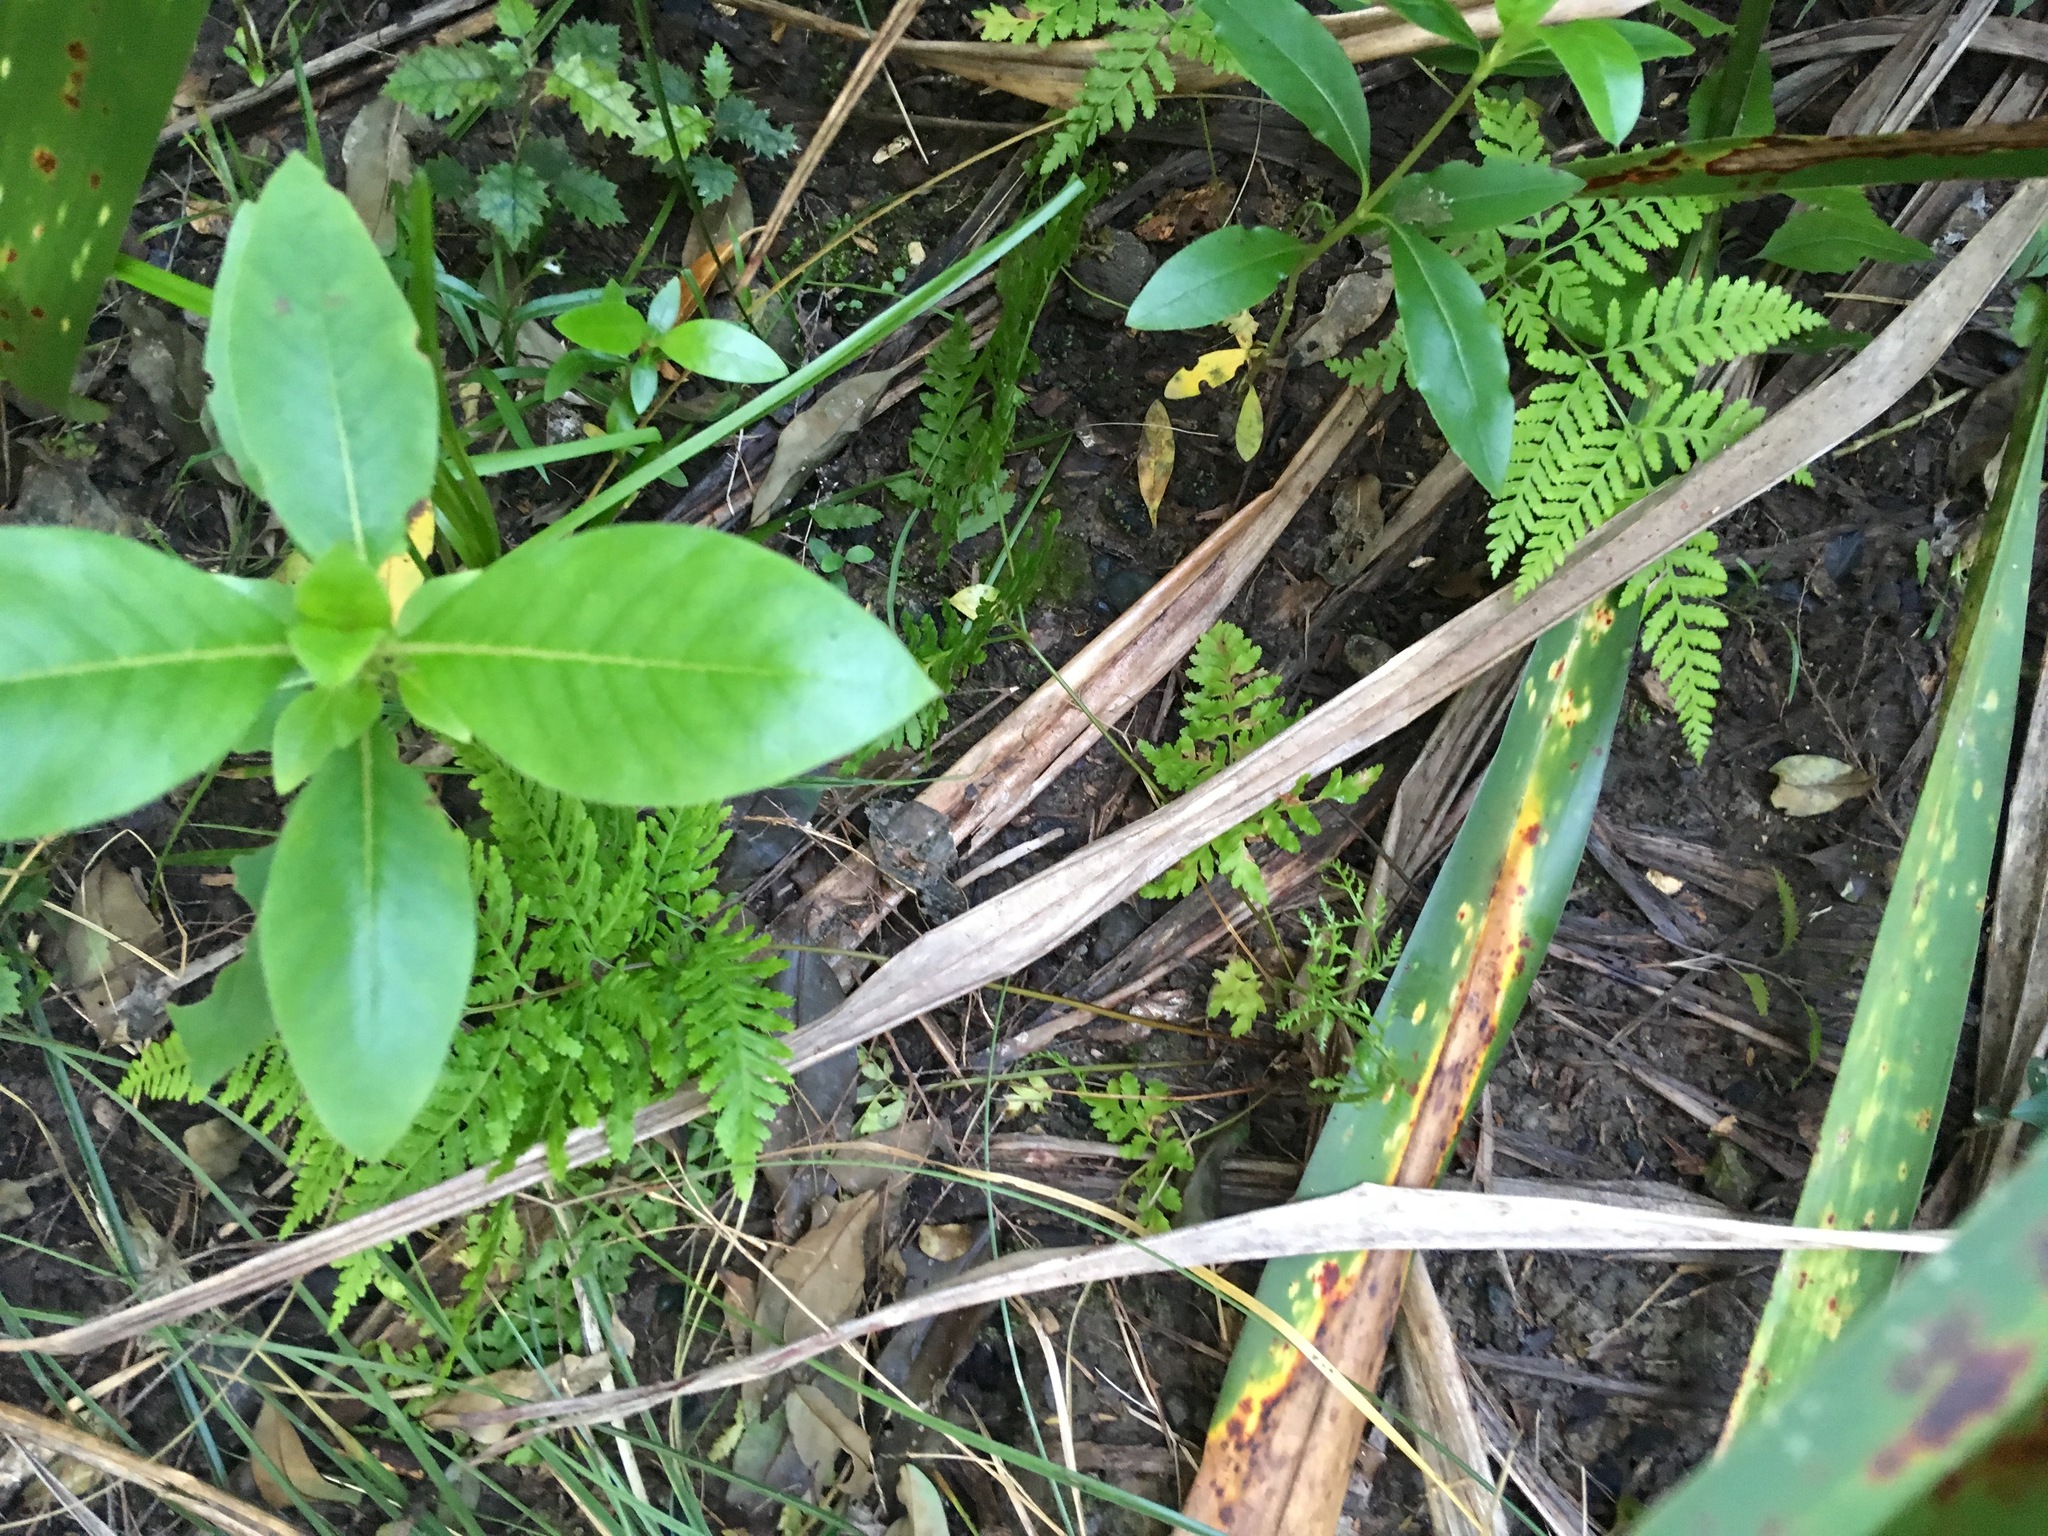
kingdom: Plantae
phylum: Tracheophyta
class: Magnoliopsida
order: Gentianales
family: Rubiaceae
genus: Coprosma
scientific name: Coprosma robusta
